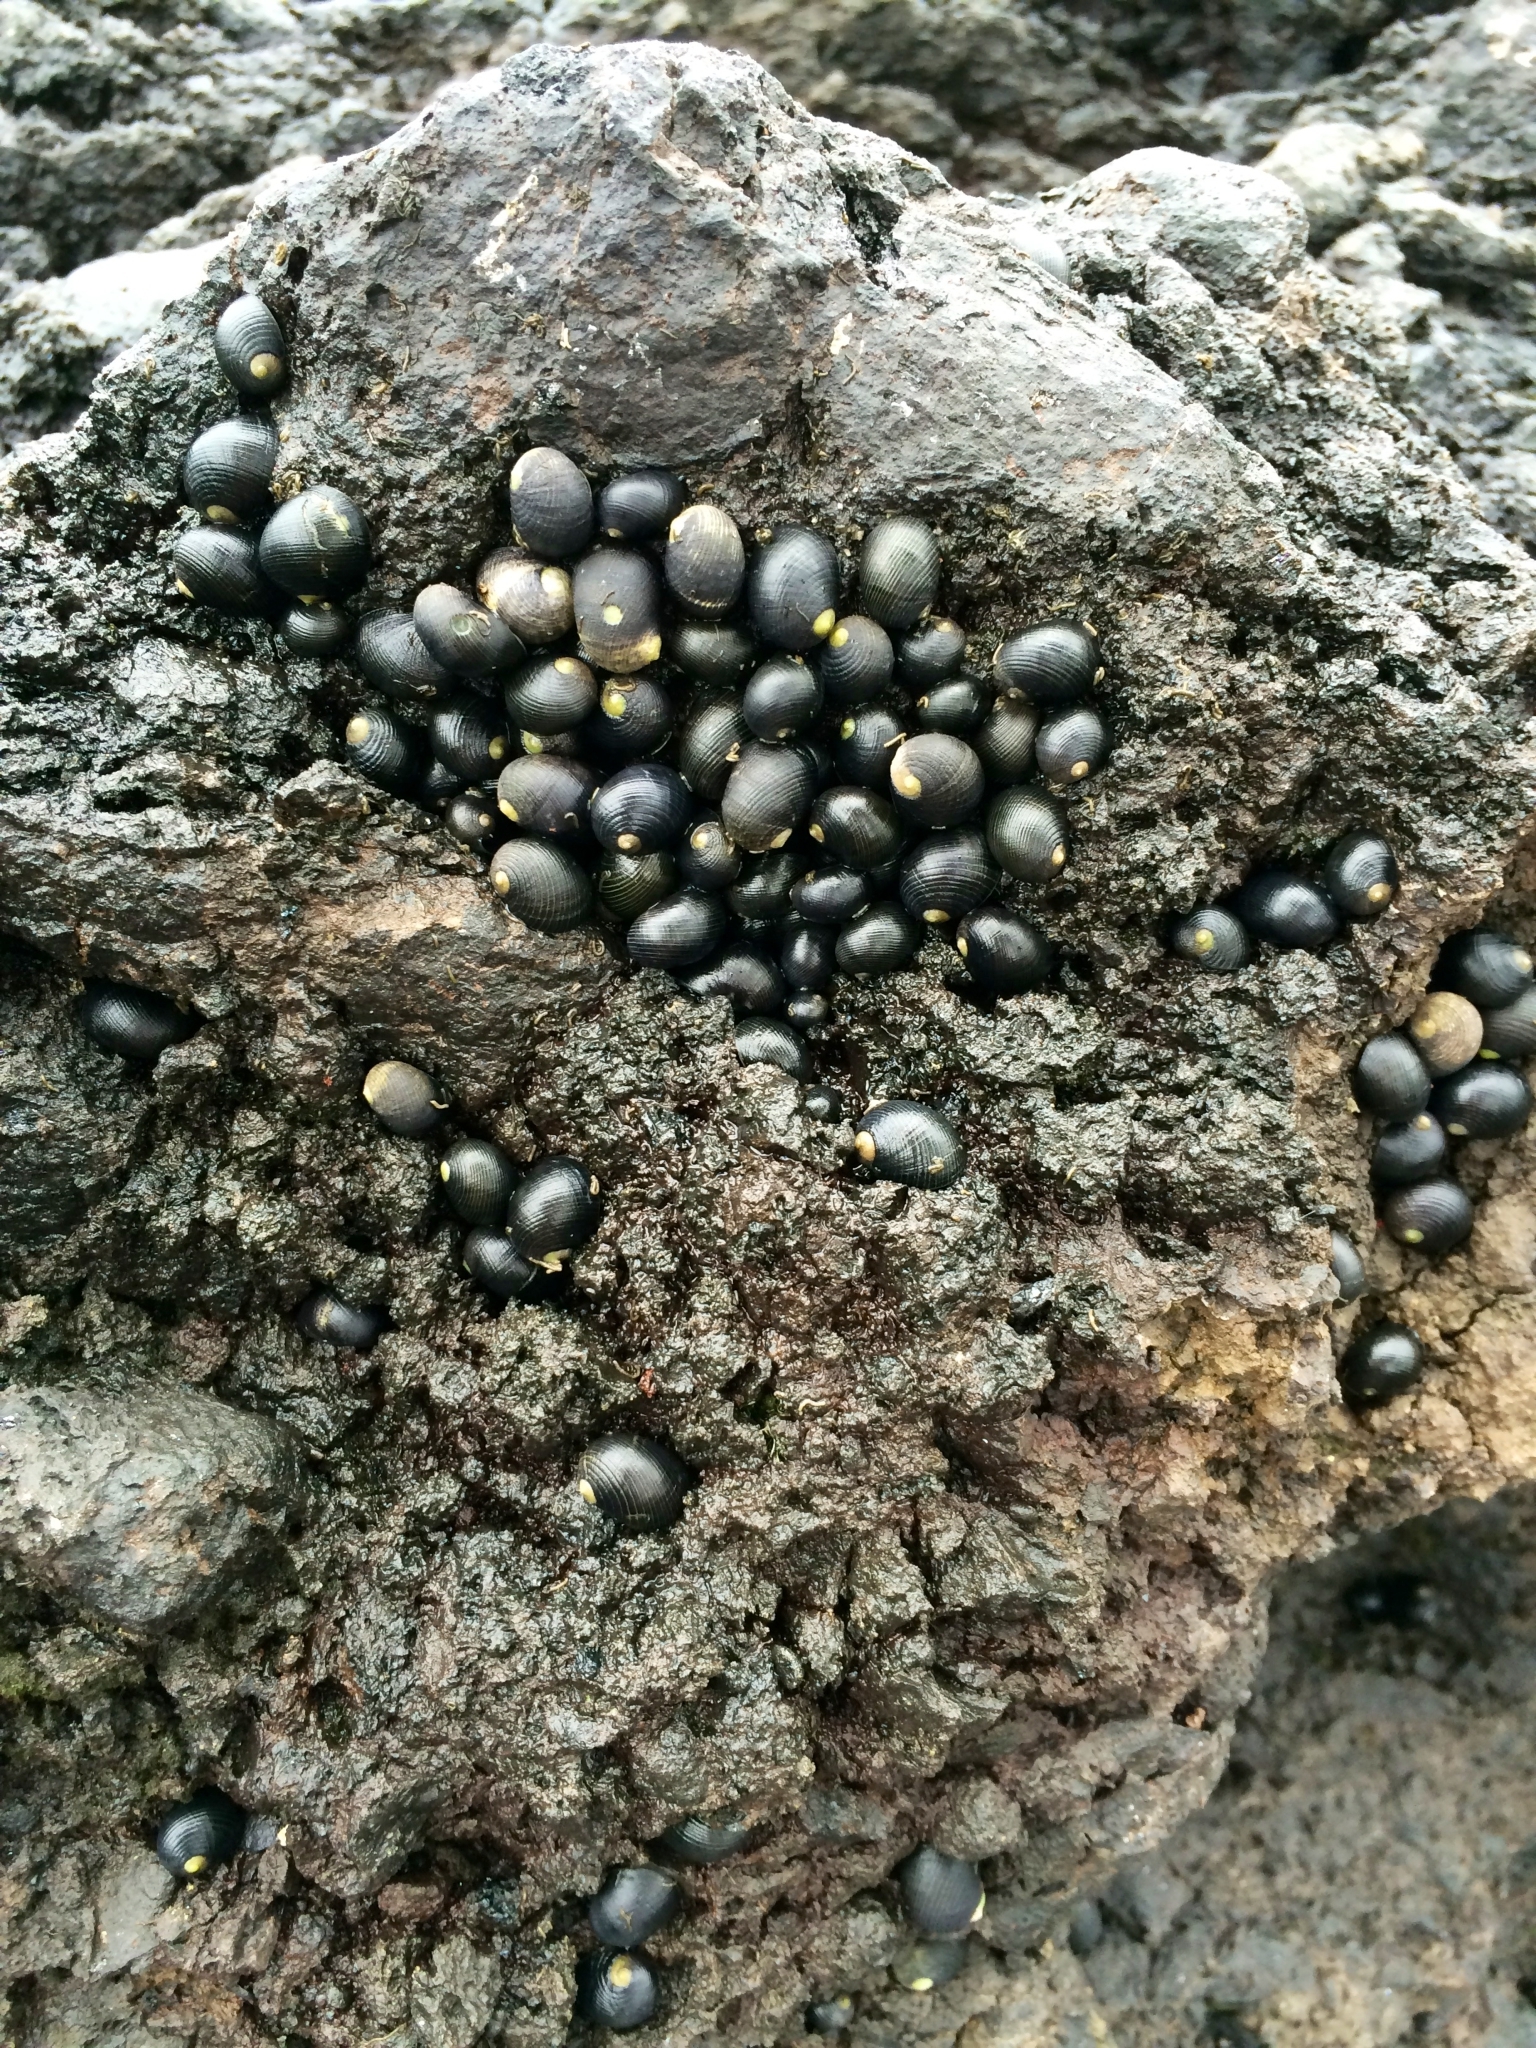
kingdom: Animalia
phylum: Mollusca
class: Gastropoda
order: Cycloneritida
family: Neritidae
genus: Nerita
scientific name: Nerita picea
